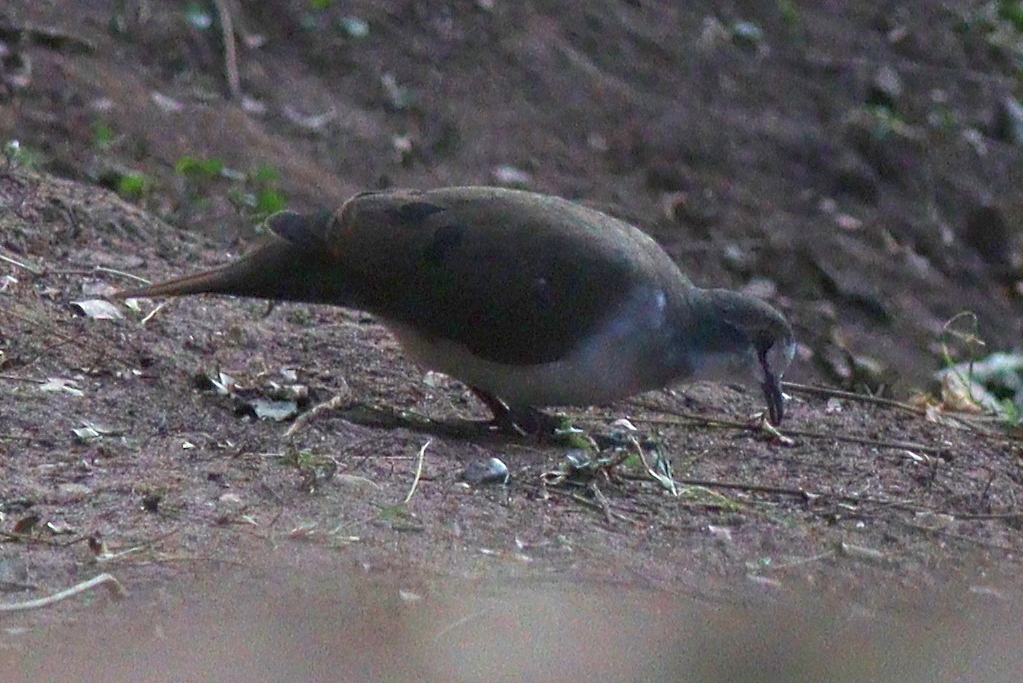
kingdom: Animalia
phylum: Chordata
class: Aves
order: Columbiformes
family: Columbidae
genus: Turtur
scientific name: Turtur tympanistria
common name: Tambourine dove
